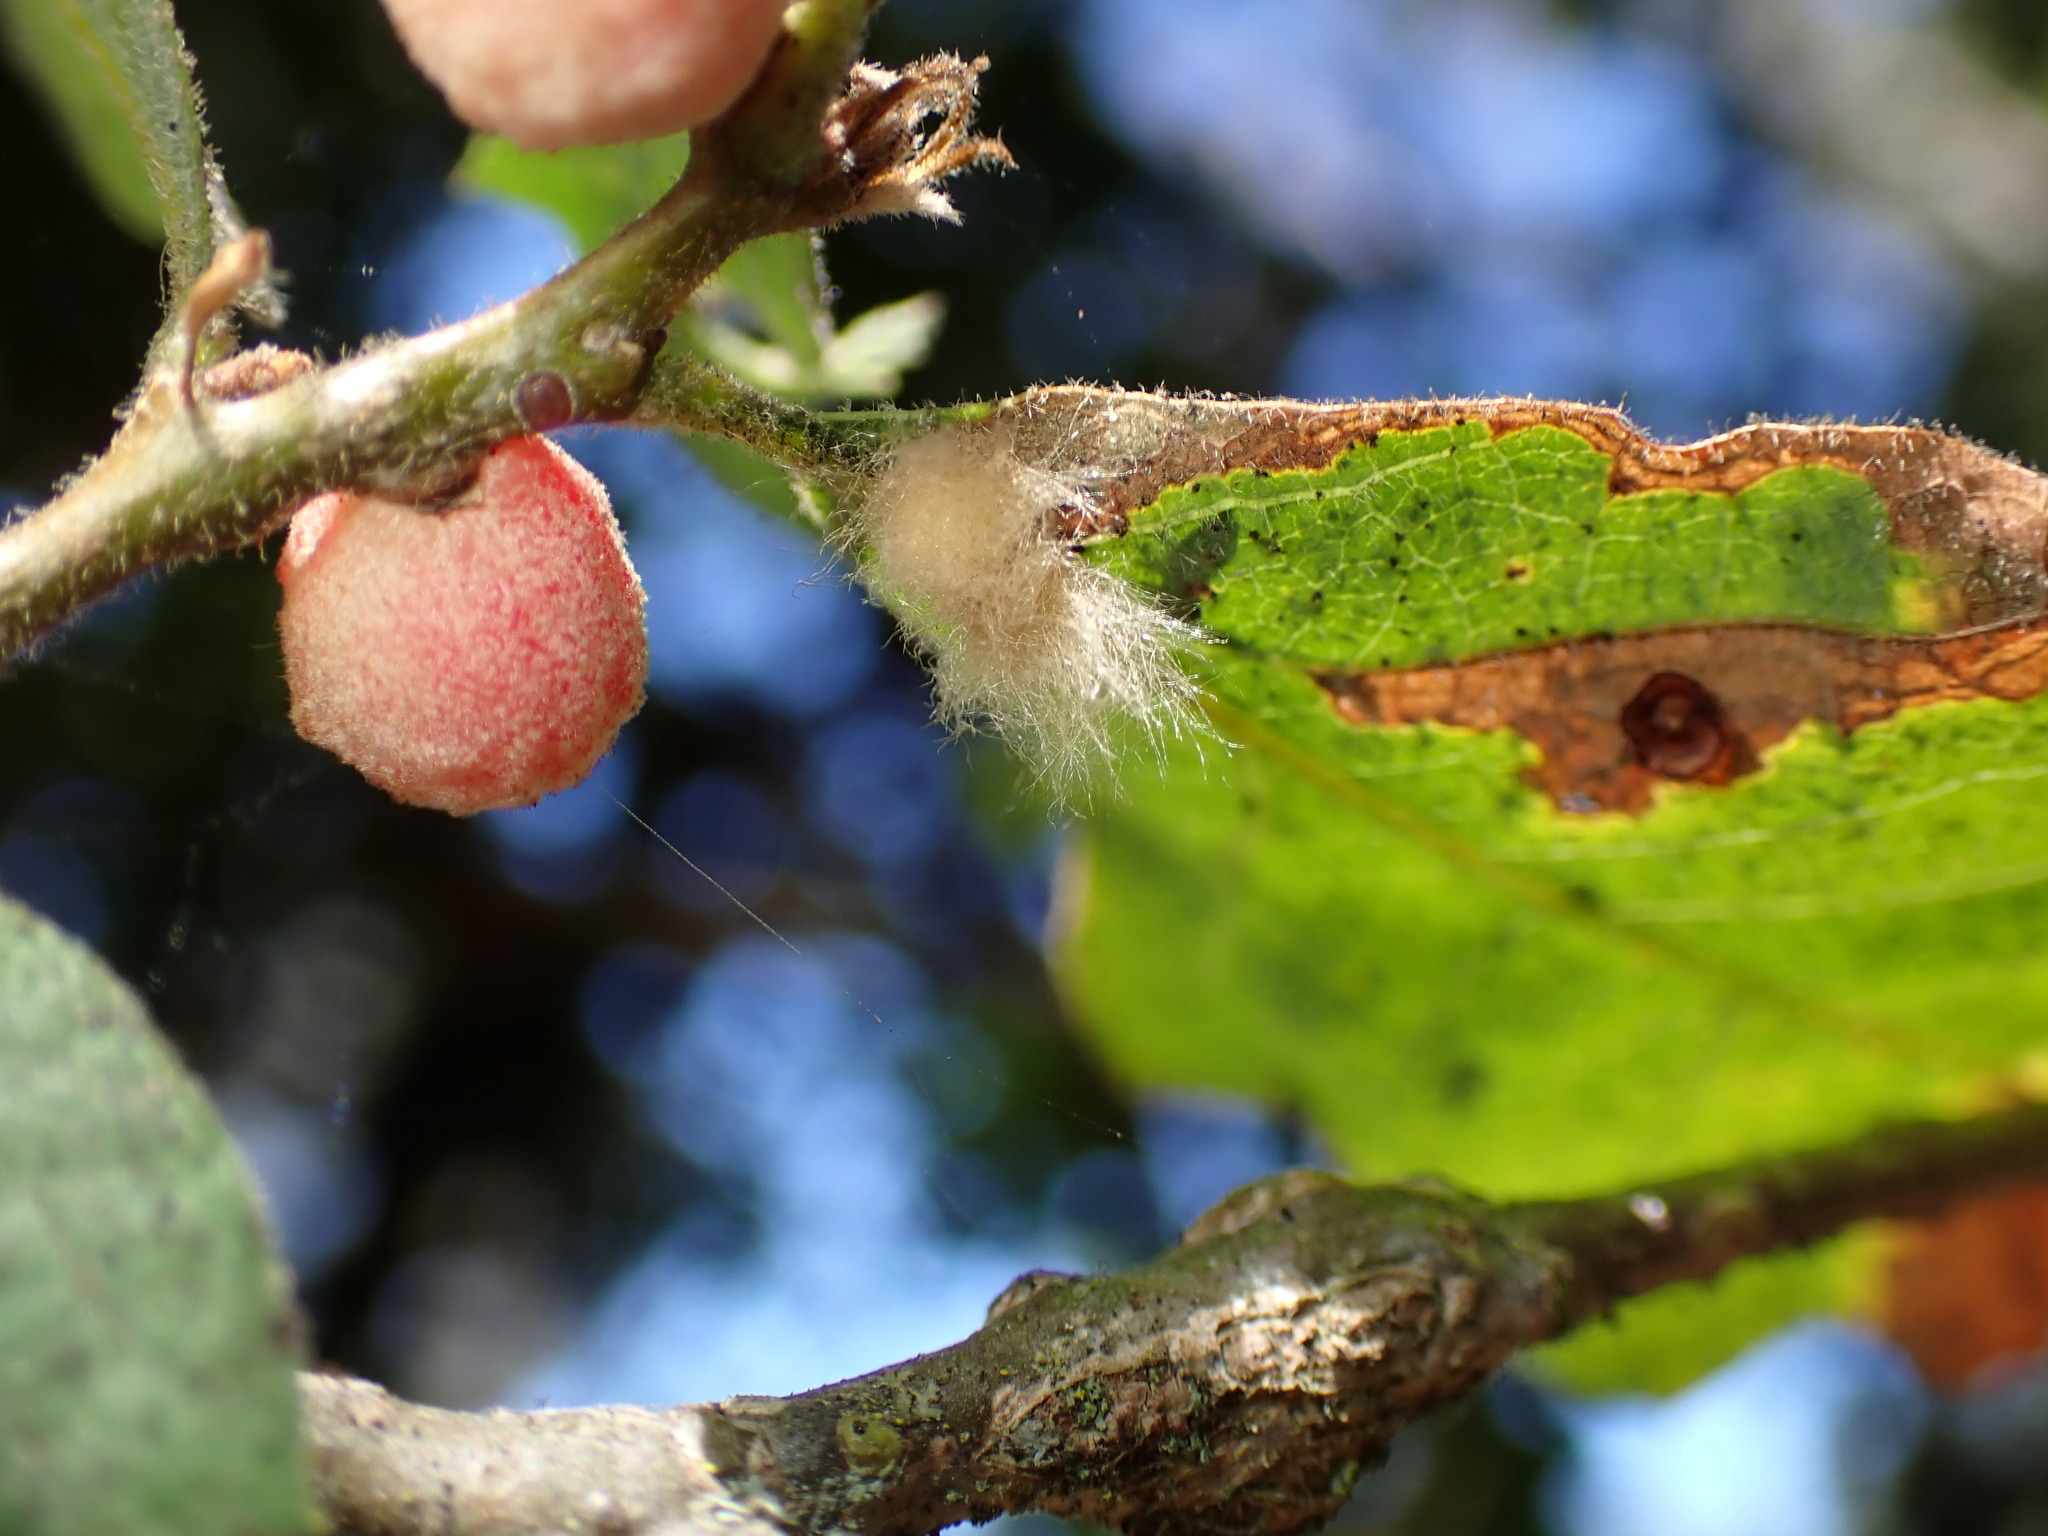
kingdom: Animalia
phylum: Arthropoda
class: Insecta
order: Hymenoptera
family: Cynipidae
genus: Andricus
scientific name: Andricus Druon fullawayi
